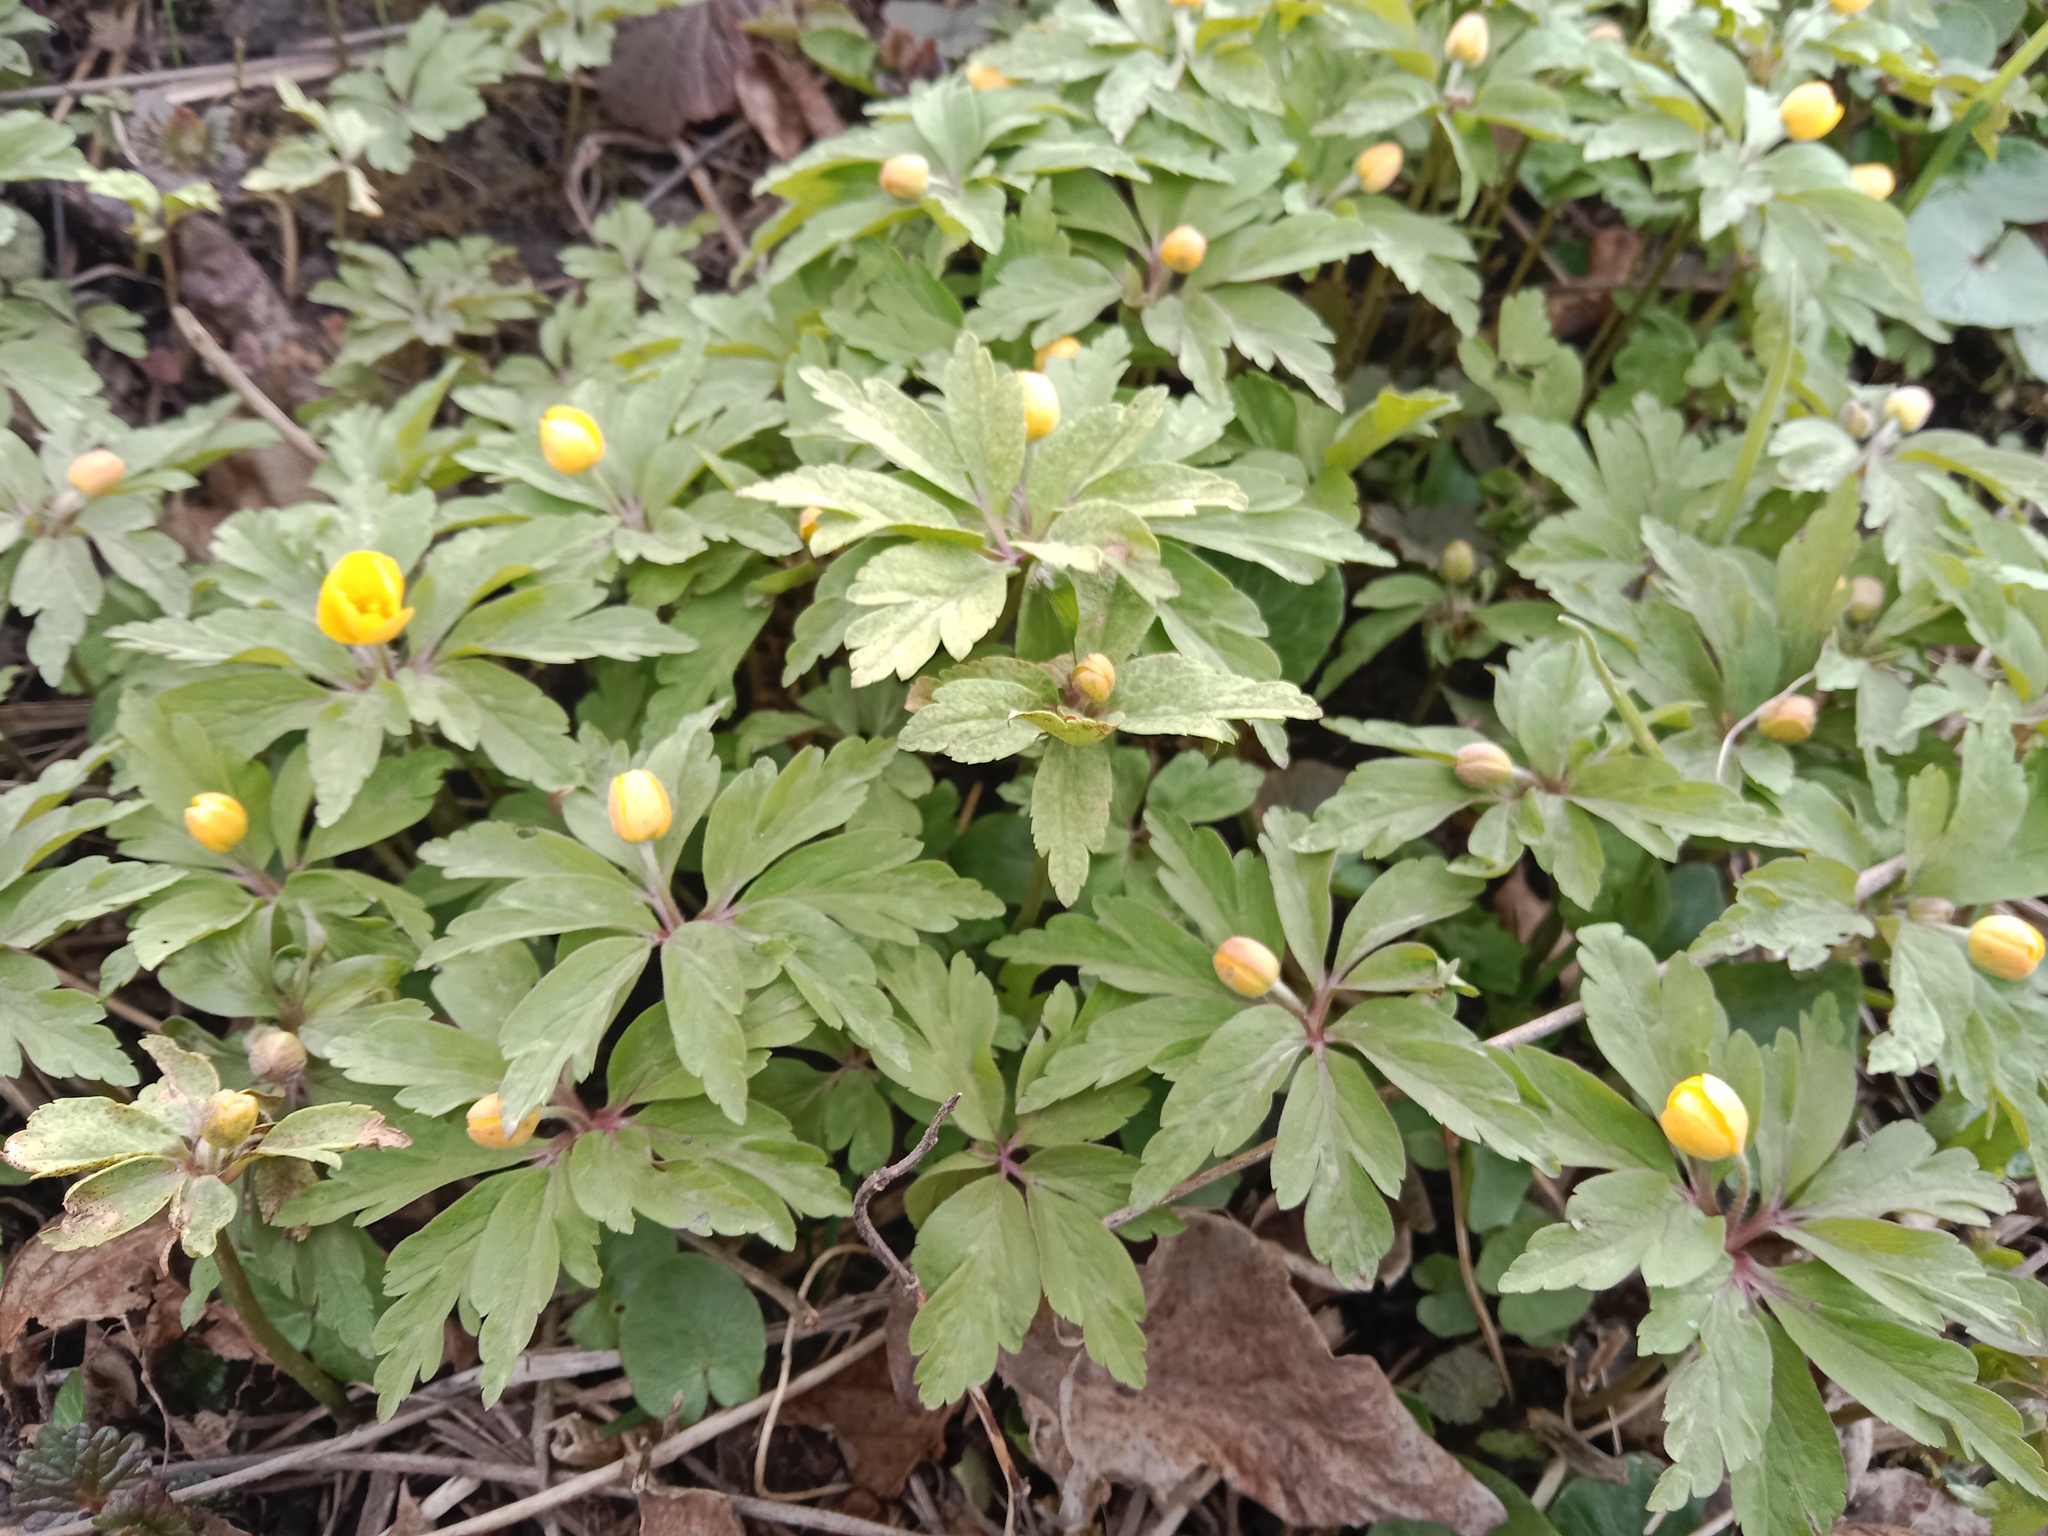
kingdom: Plantae
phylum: Tracheophyta
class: Magnoliopsida
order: Ranunculales
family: Ranunculaceae
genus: Anemone
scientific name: Anemone ranunculoides
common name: Yellow anemone
